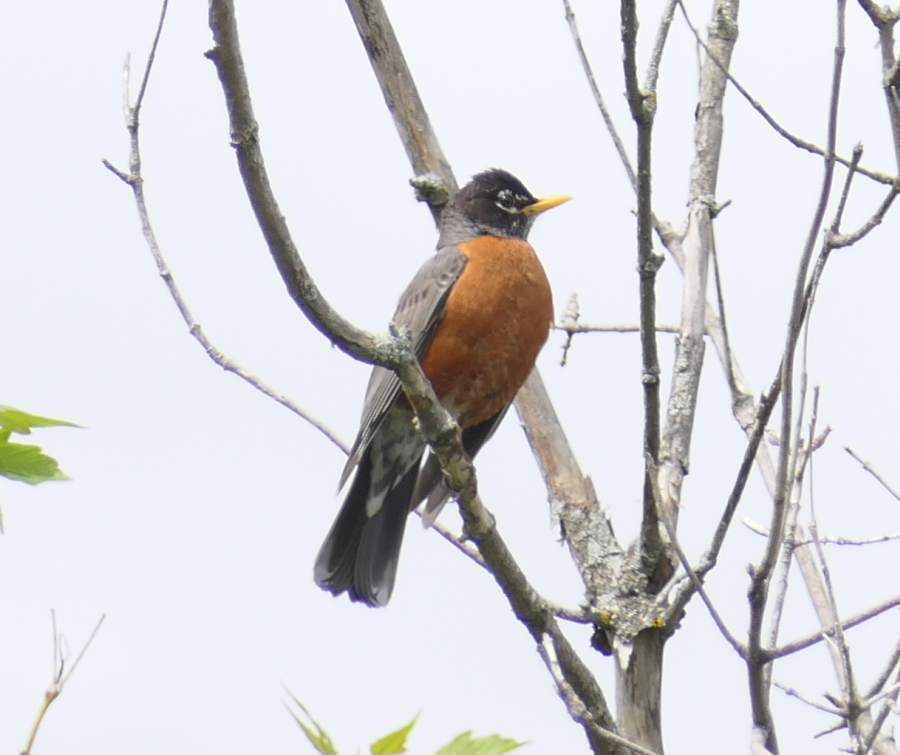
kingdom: Animalia
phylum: Chordata
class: Aves
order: Passeriformes
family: Turdidae
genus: Turdus
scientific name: Turdus migratorius
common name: American robin
